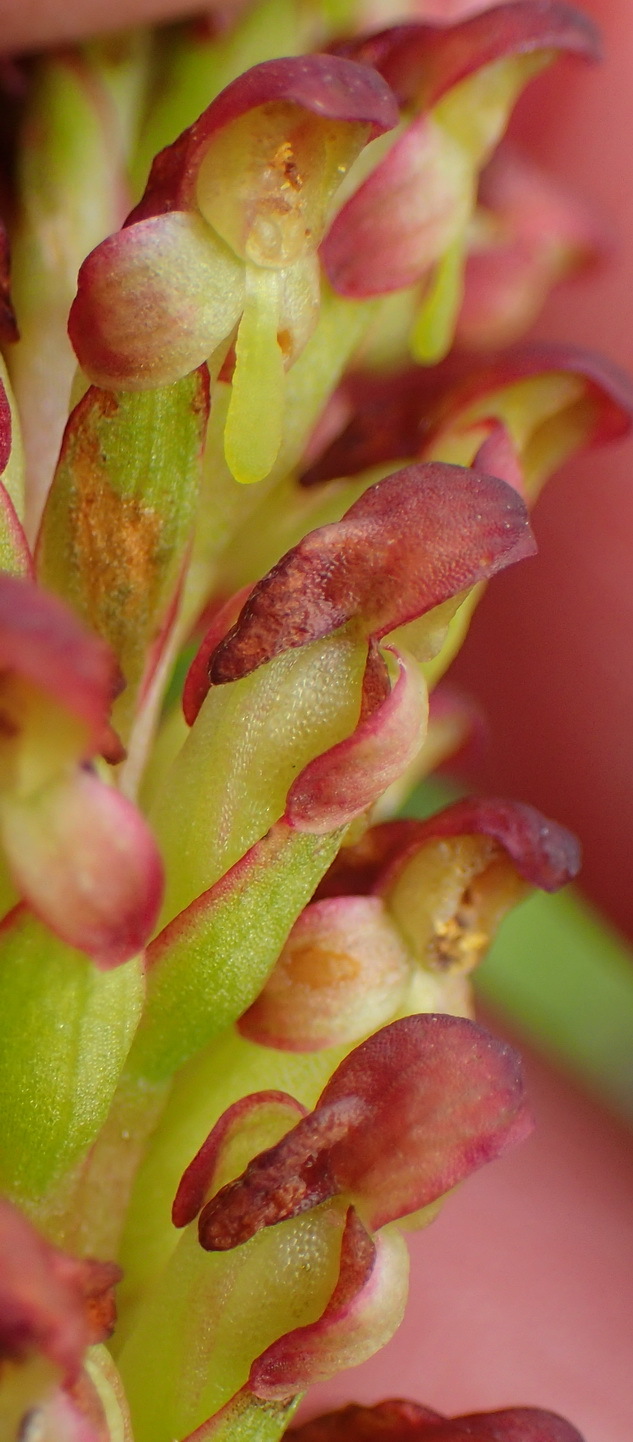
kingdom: Plantae
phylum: Tracheophyta
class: Liliopsida
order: Asparagales
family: Orchidaceae
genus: Disa
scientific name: Disa densiflora
